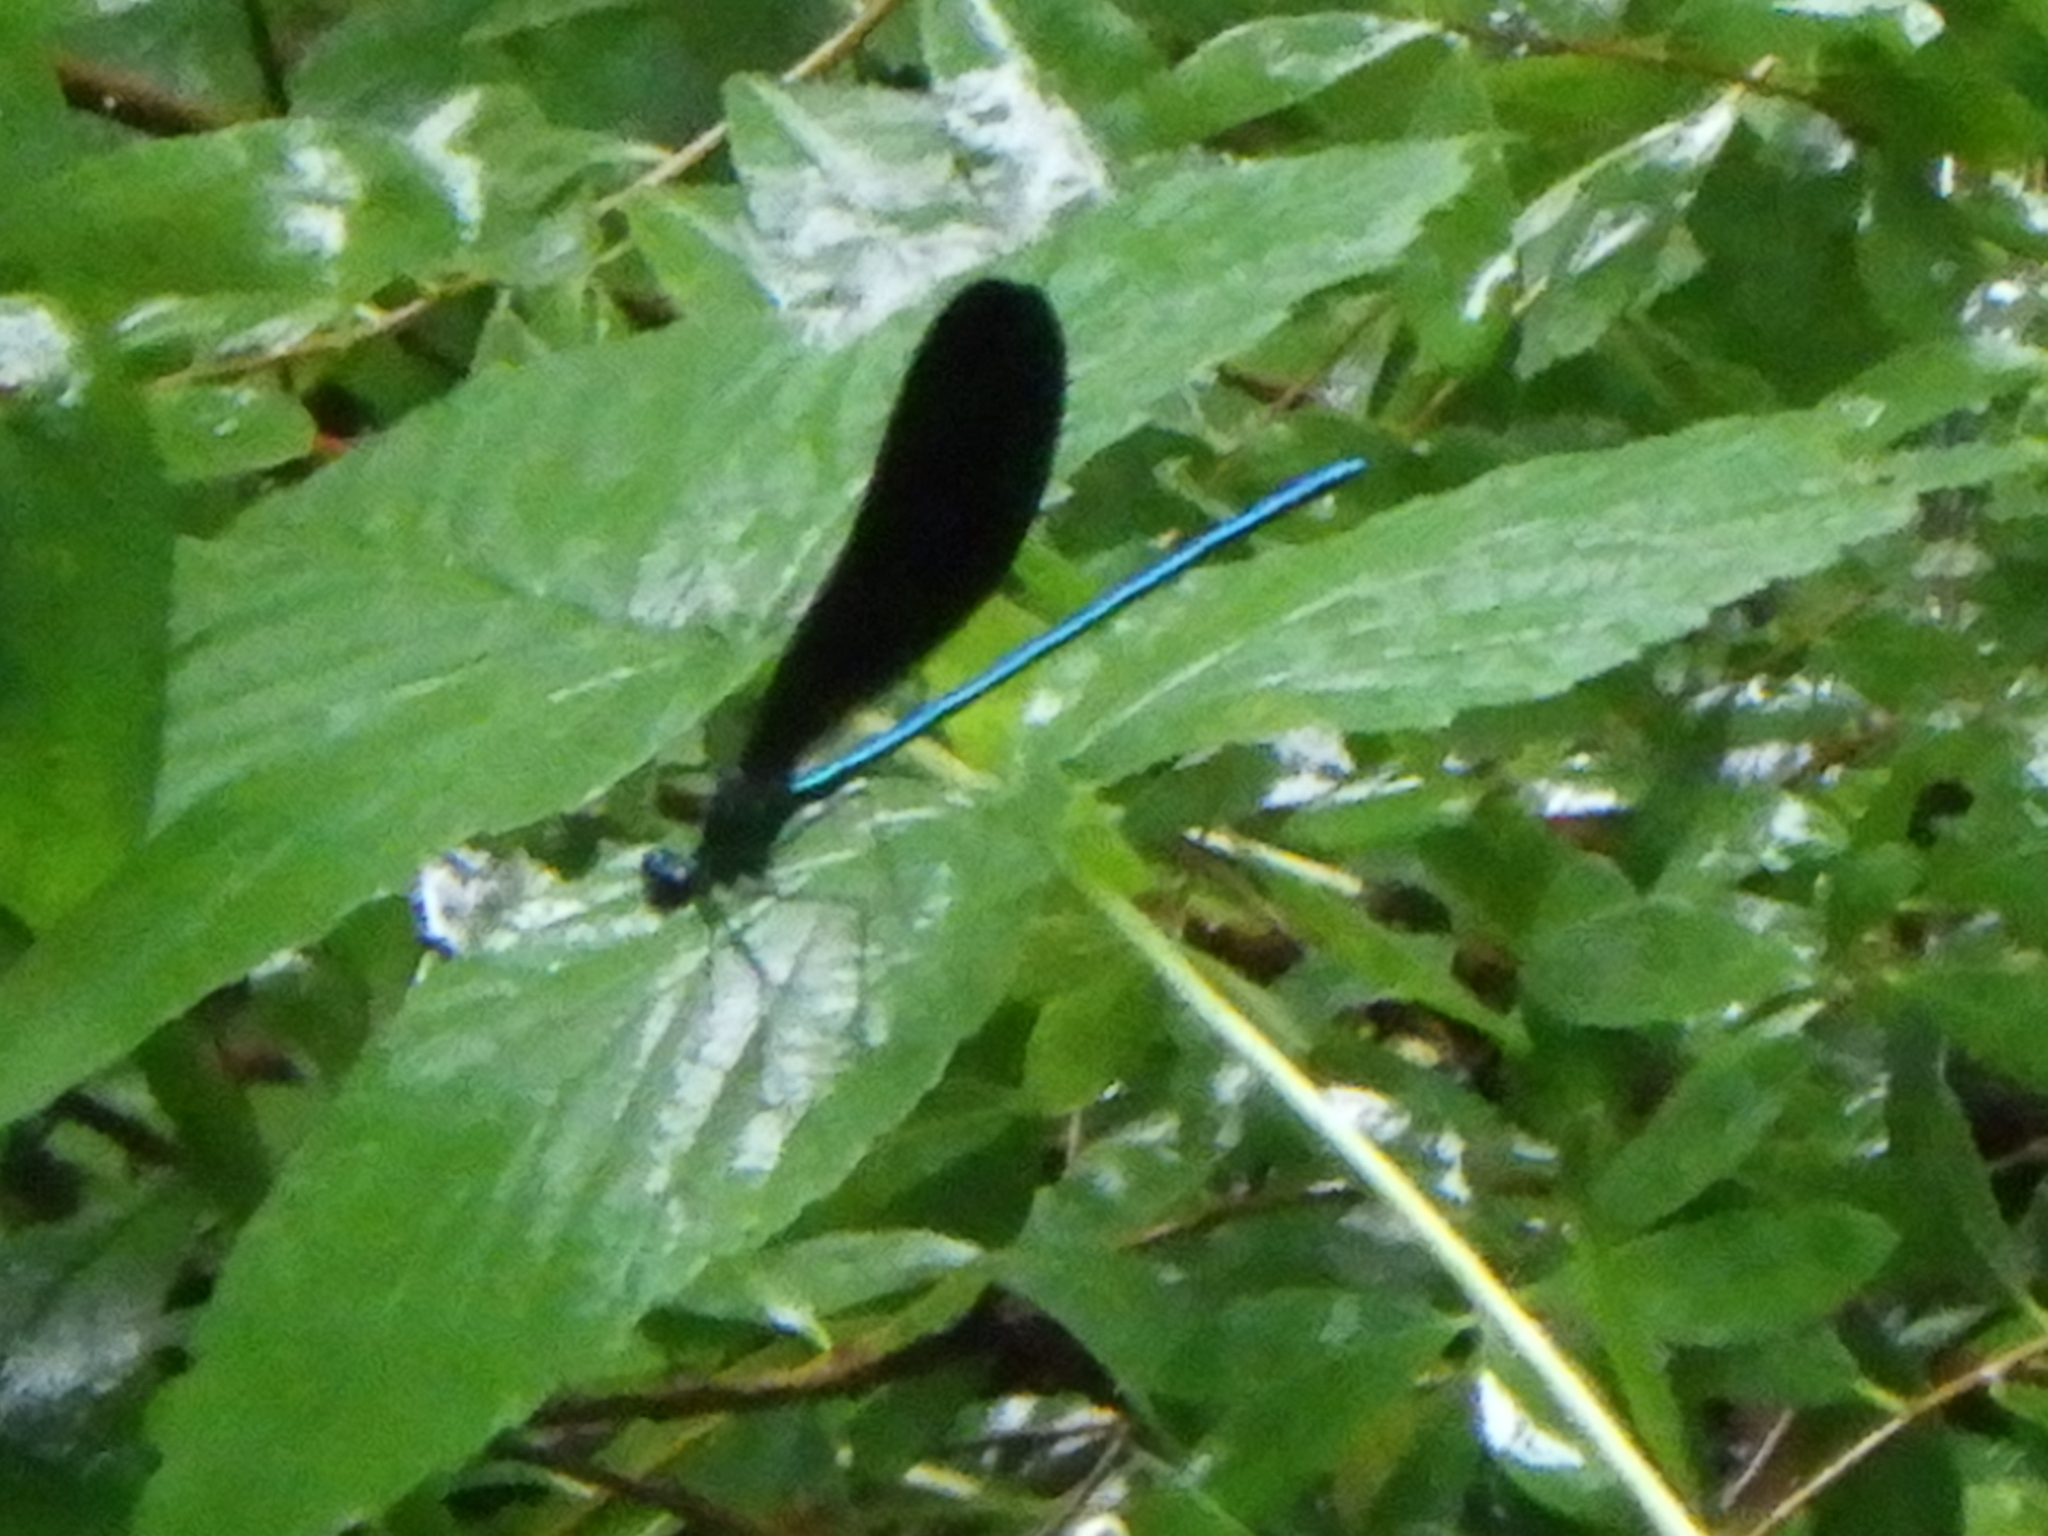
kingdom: Animalia
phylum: Arthropoda
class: Insecta
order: Odonata
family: Calopterygidae
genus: Calopteryx
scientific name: Calopteryx maculata
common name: Ebony jewelwing
